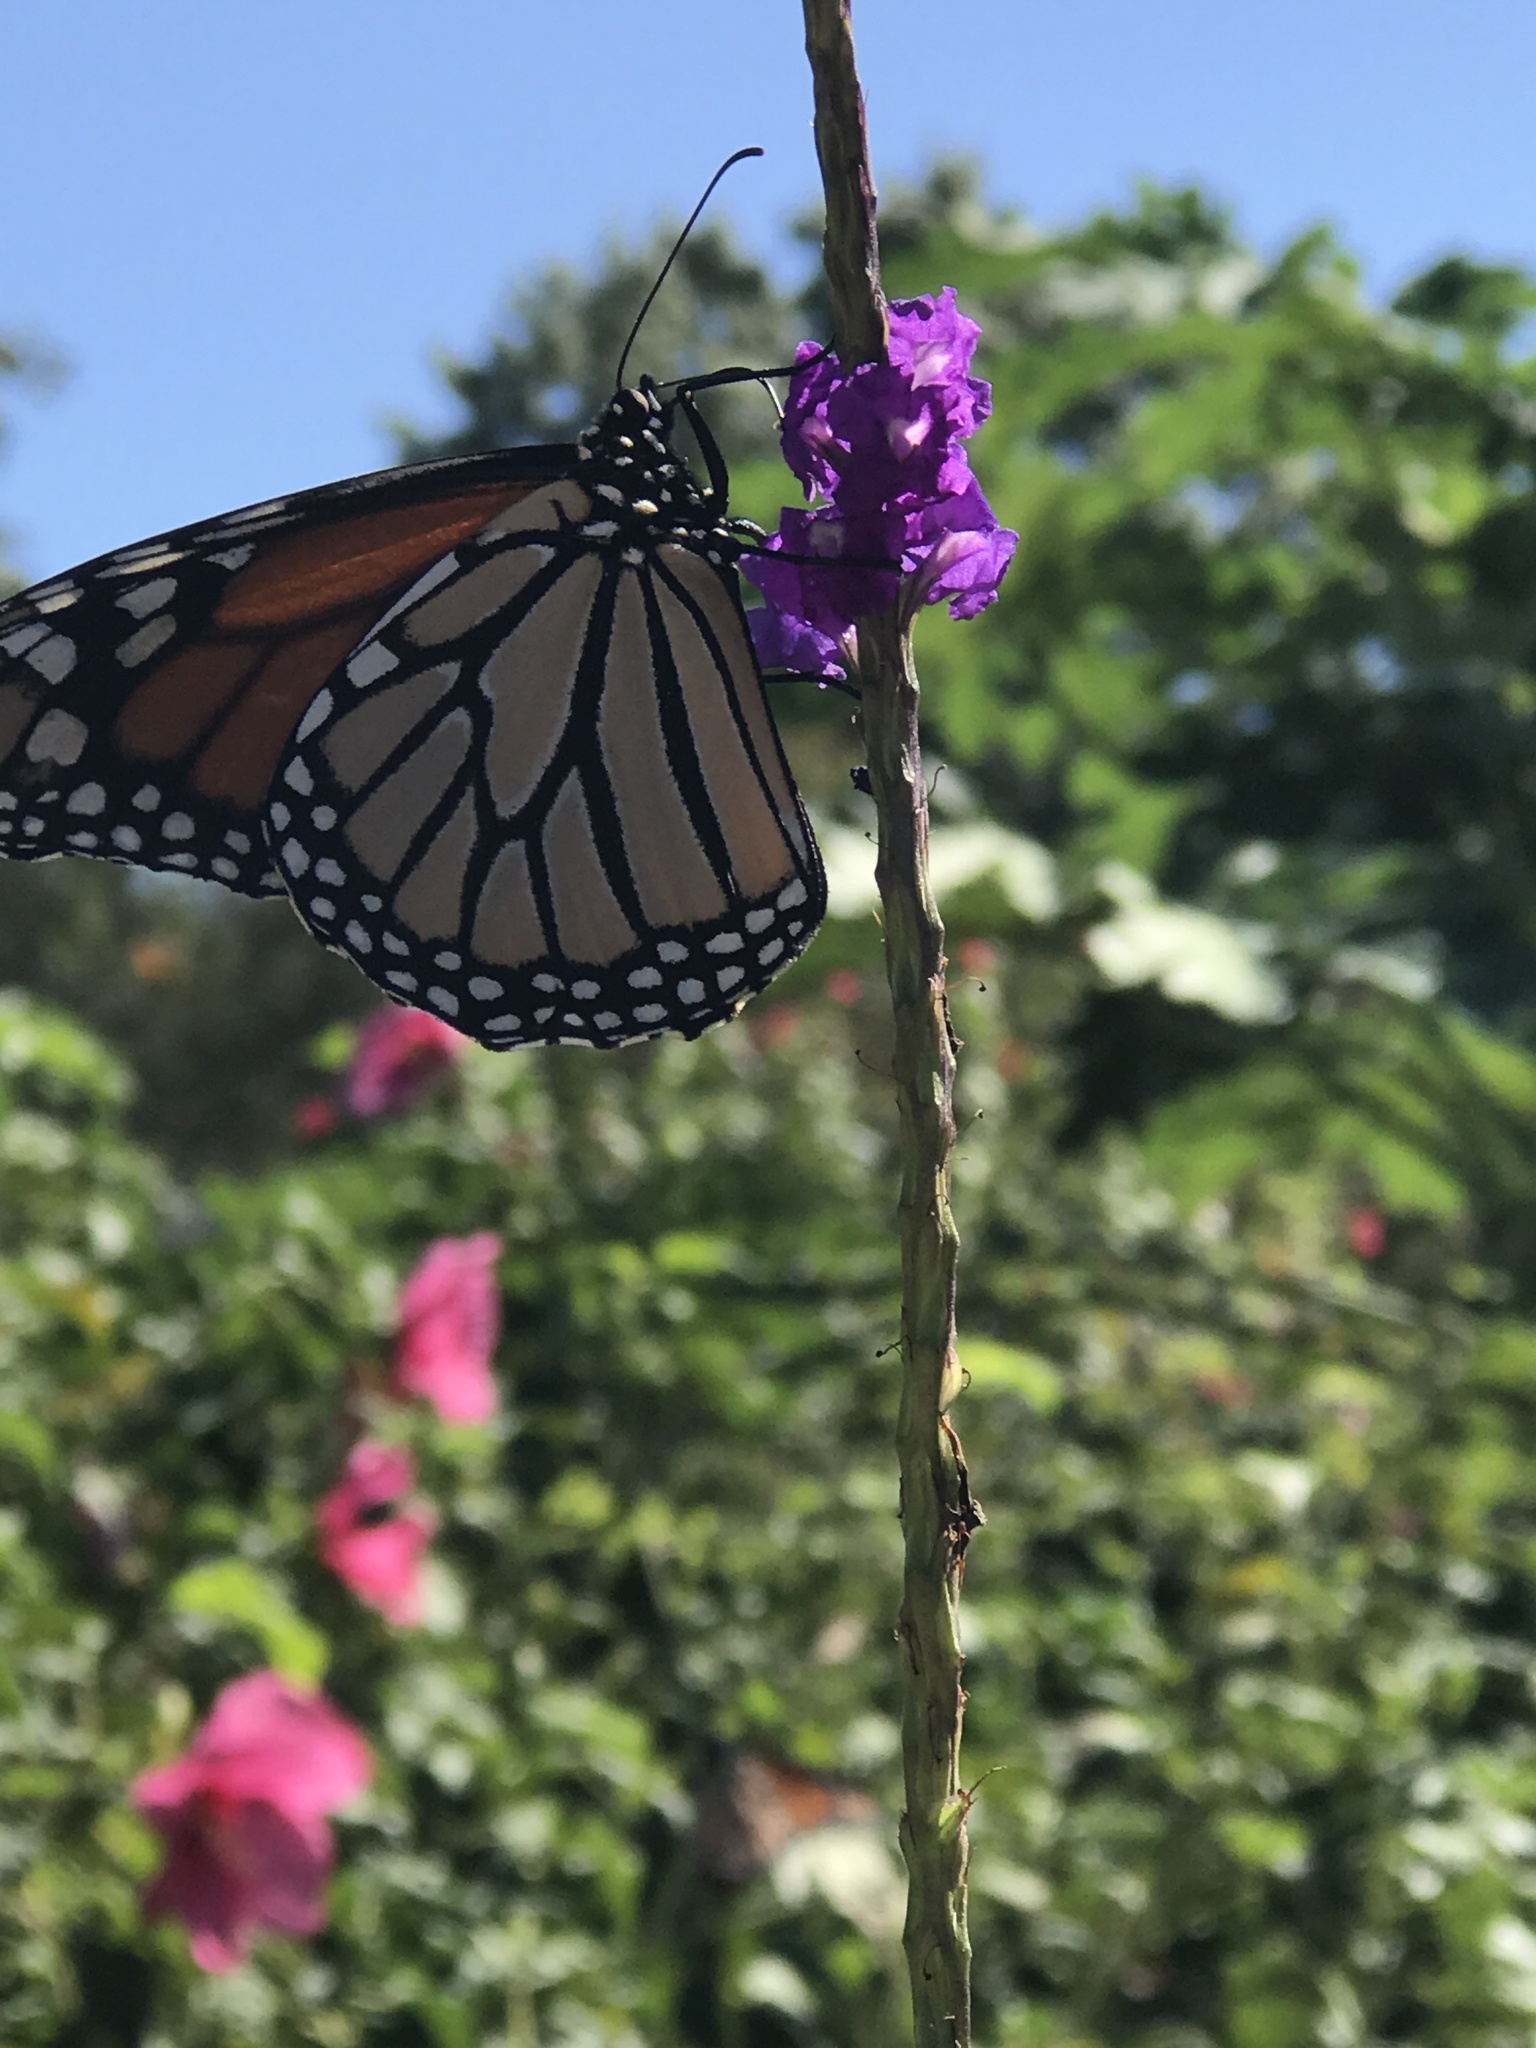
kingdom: Animalia
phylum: Arthropoda
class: Insecta
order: Lepidoptera
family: Nymphalidae
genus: Danaus
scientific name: Danaus plexippus
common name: Monarch
